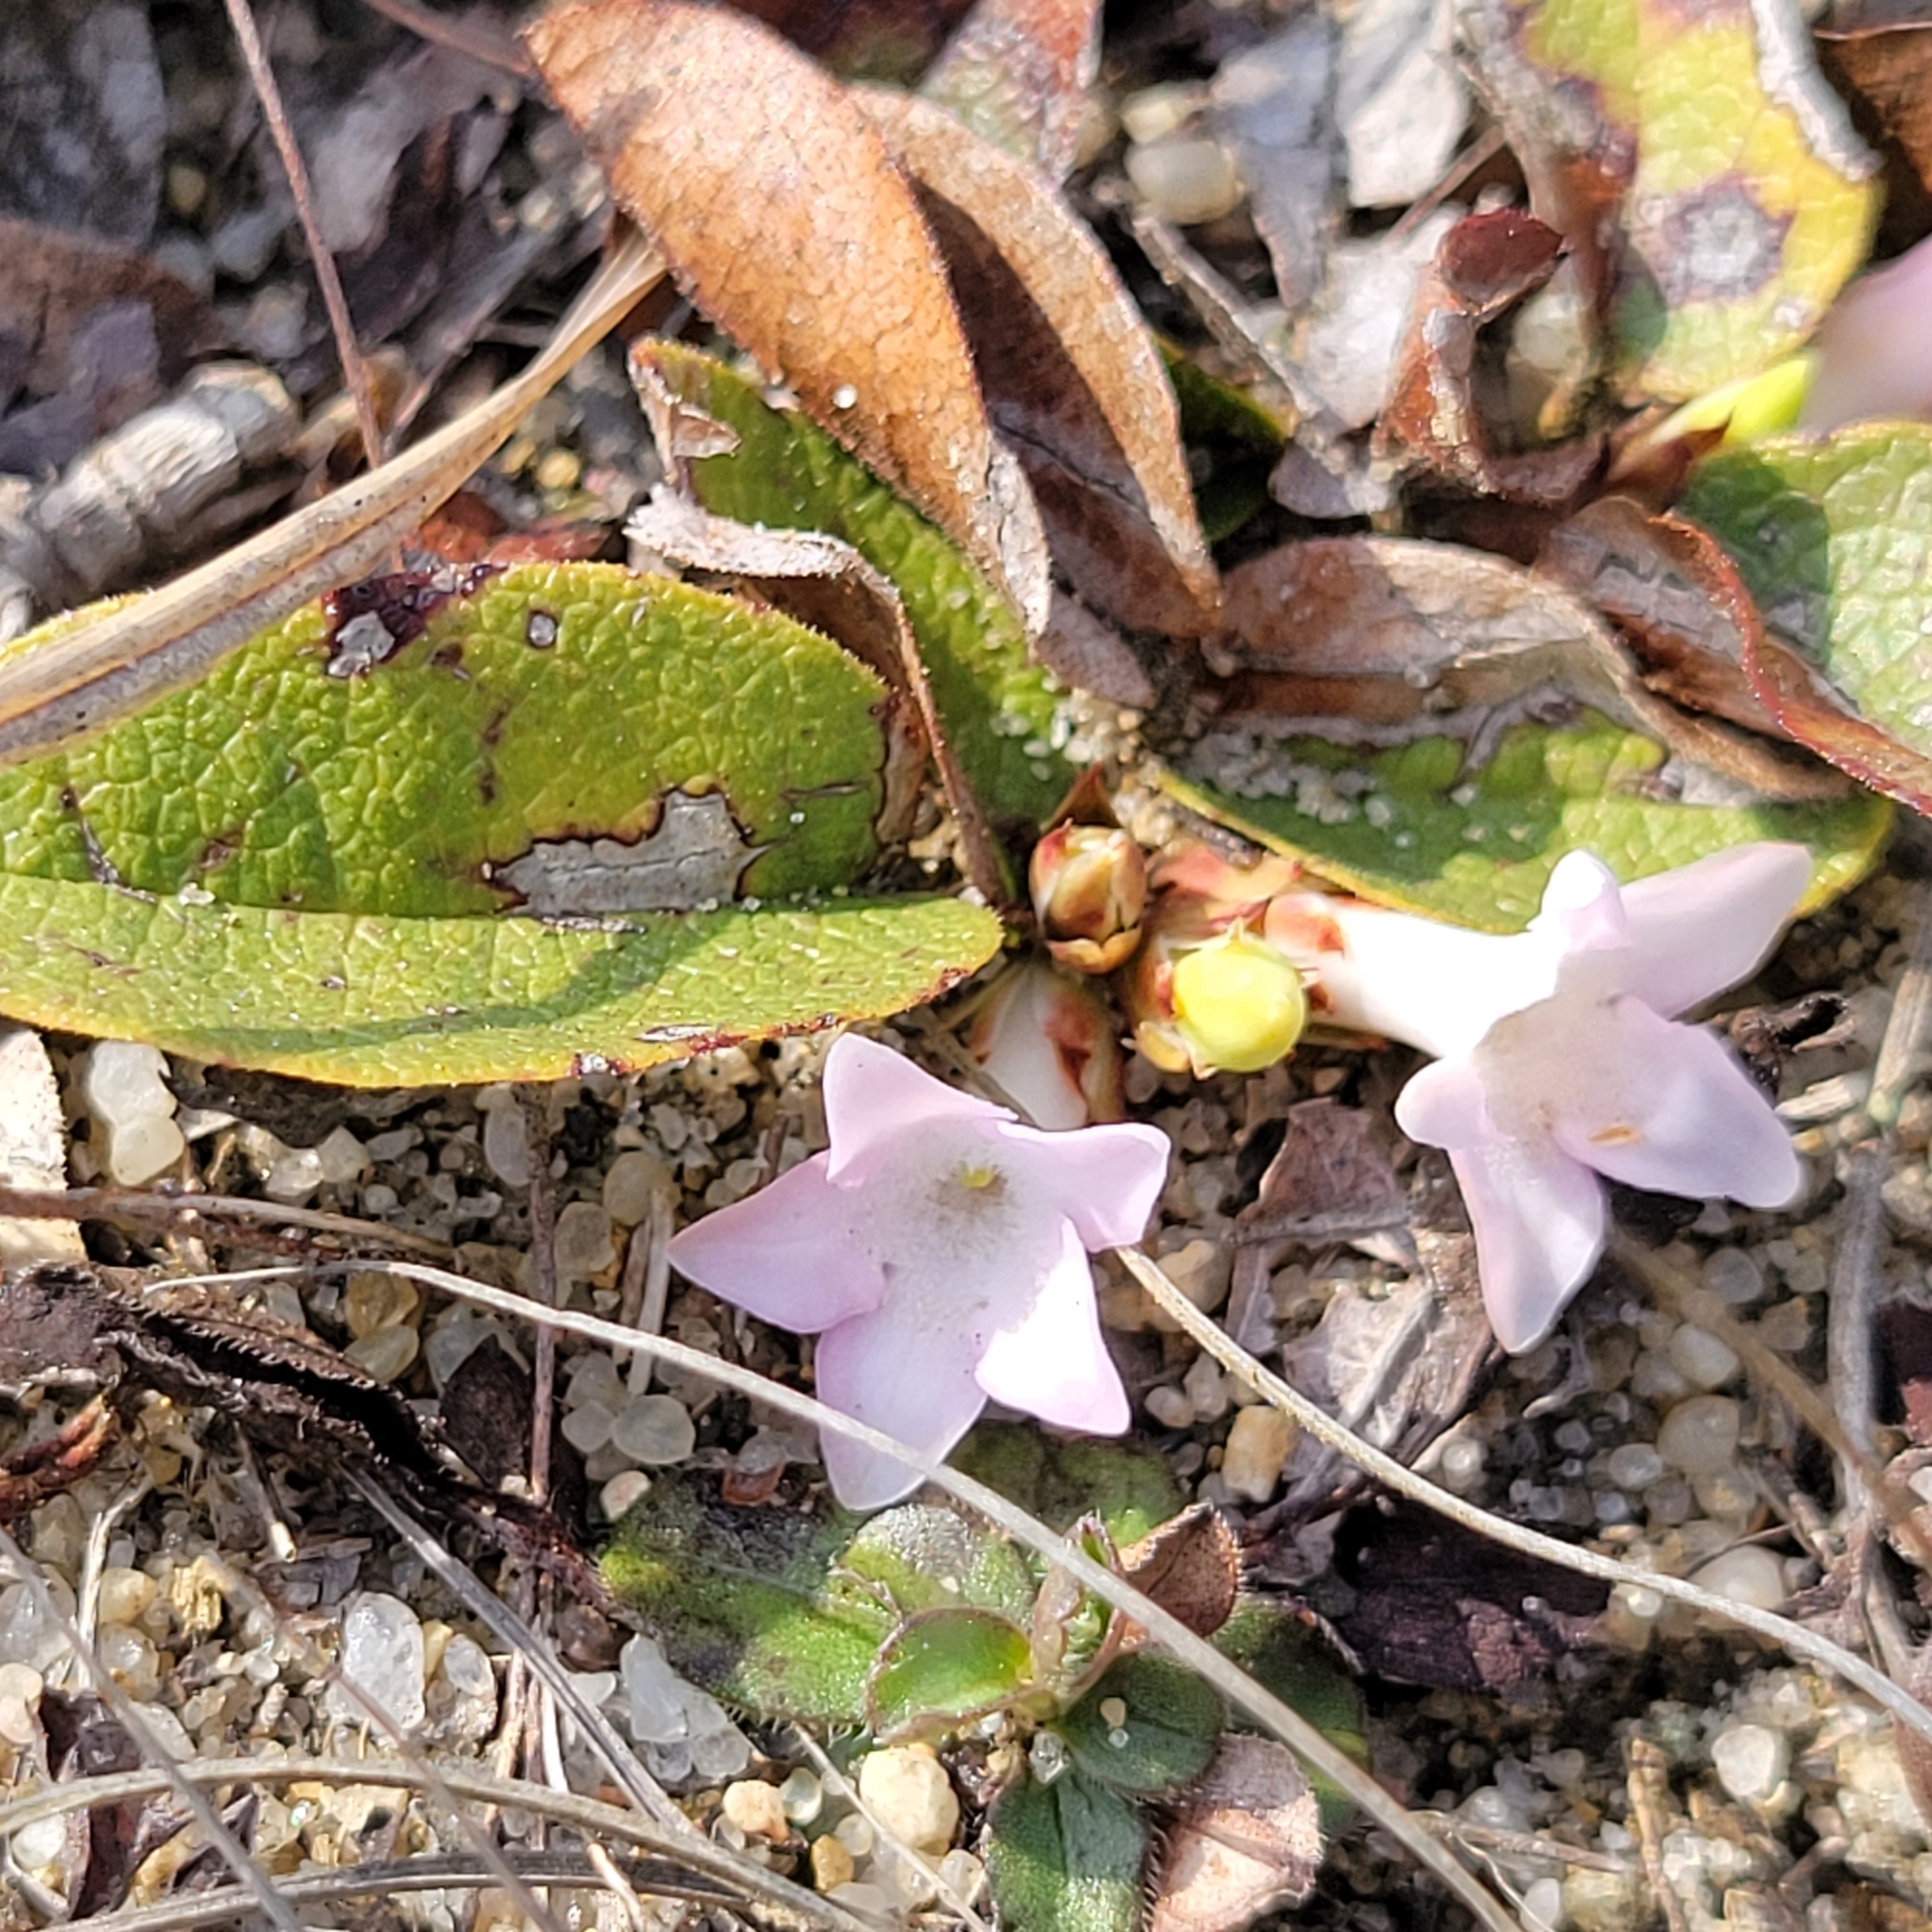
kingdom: Plantae
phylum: Tracheophyta
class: Magnoliopsida
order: Ericales
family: Ericaceae
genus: Epigaea
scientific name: Epigaea repens
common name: Gravelroot
